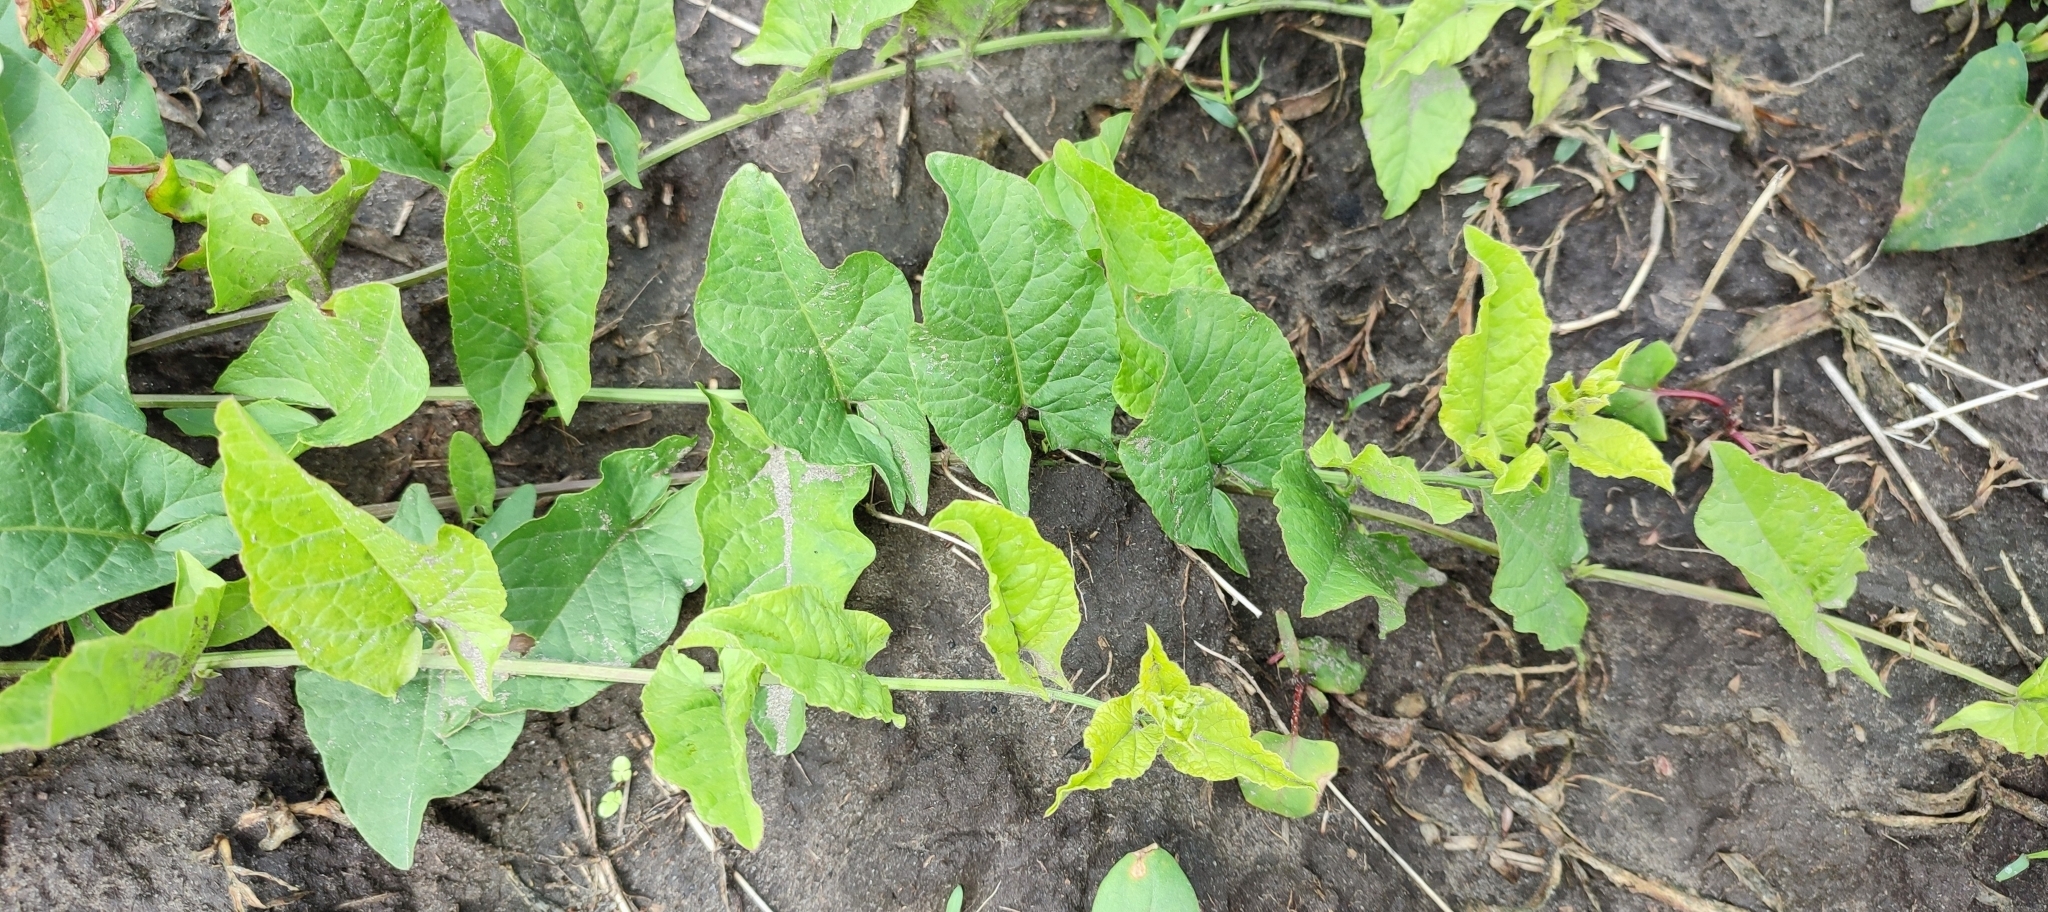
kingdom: Plantae
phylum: Tracheophyta
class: Magnoliopsida
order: Solanales
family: Convolvulaceae
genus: Convolvulus
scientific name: Convolvulus arvensis
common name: Field bindweed
